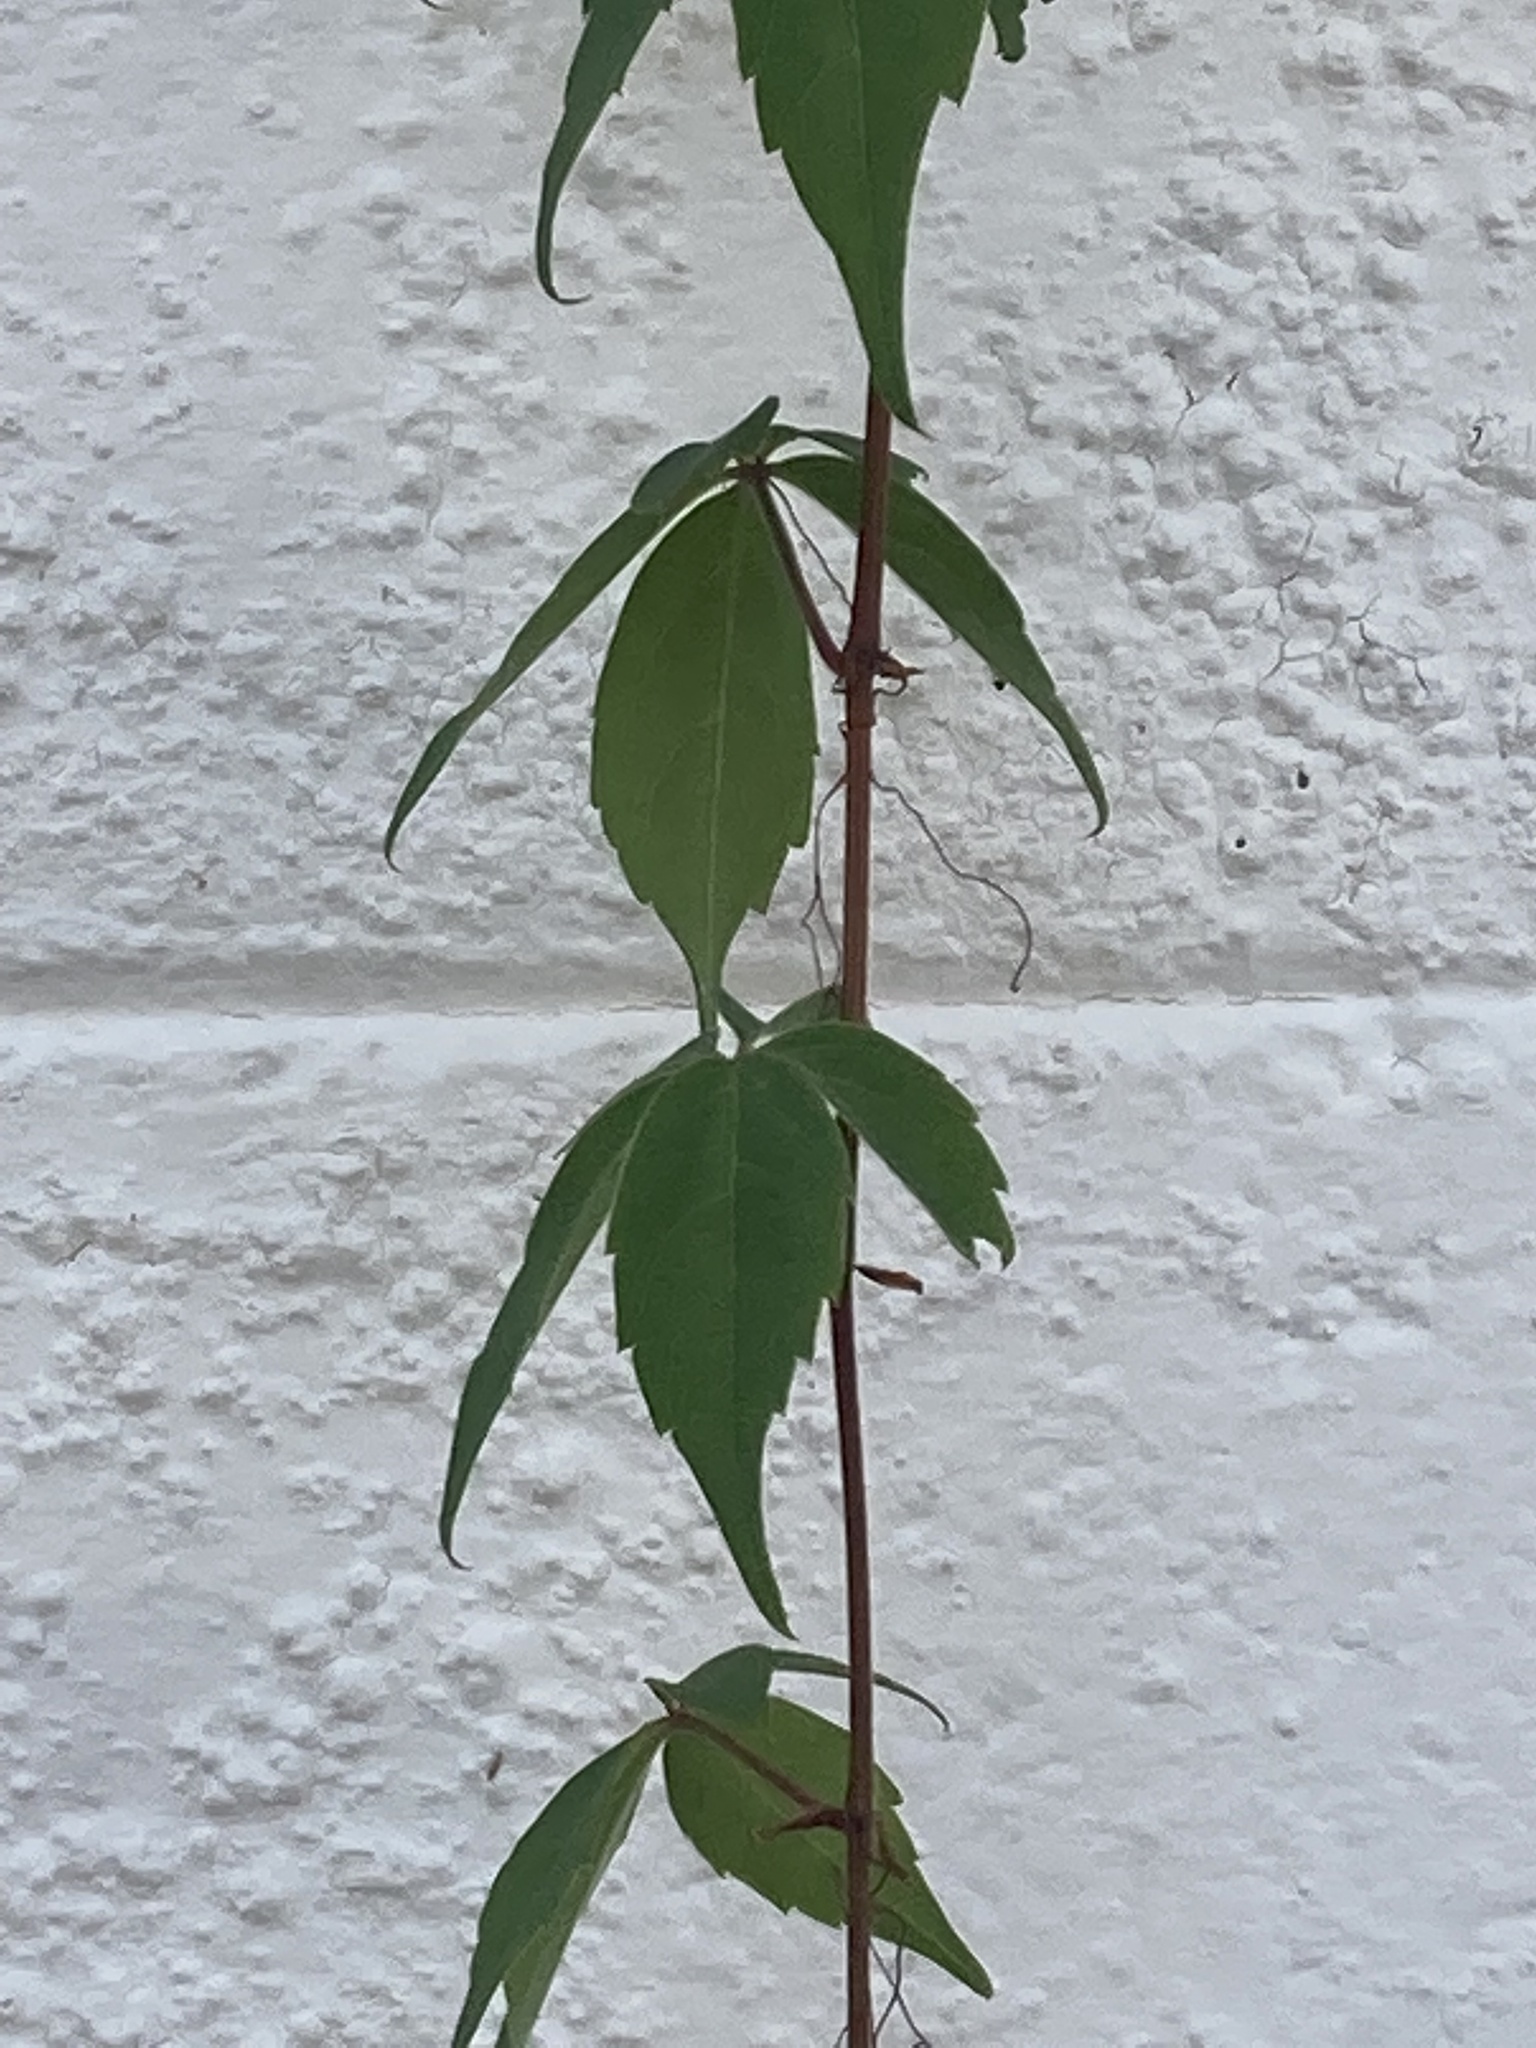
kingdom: Plantae
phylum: Tracheophyta
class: Magnoliopsida
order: Vitales
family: Vitaceae
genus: Parthenocissus
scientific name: Parthenocissus quinquefolia
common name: Virginia-creeper
